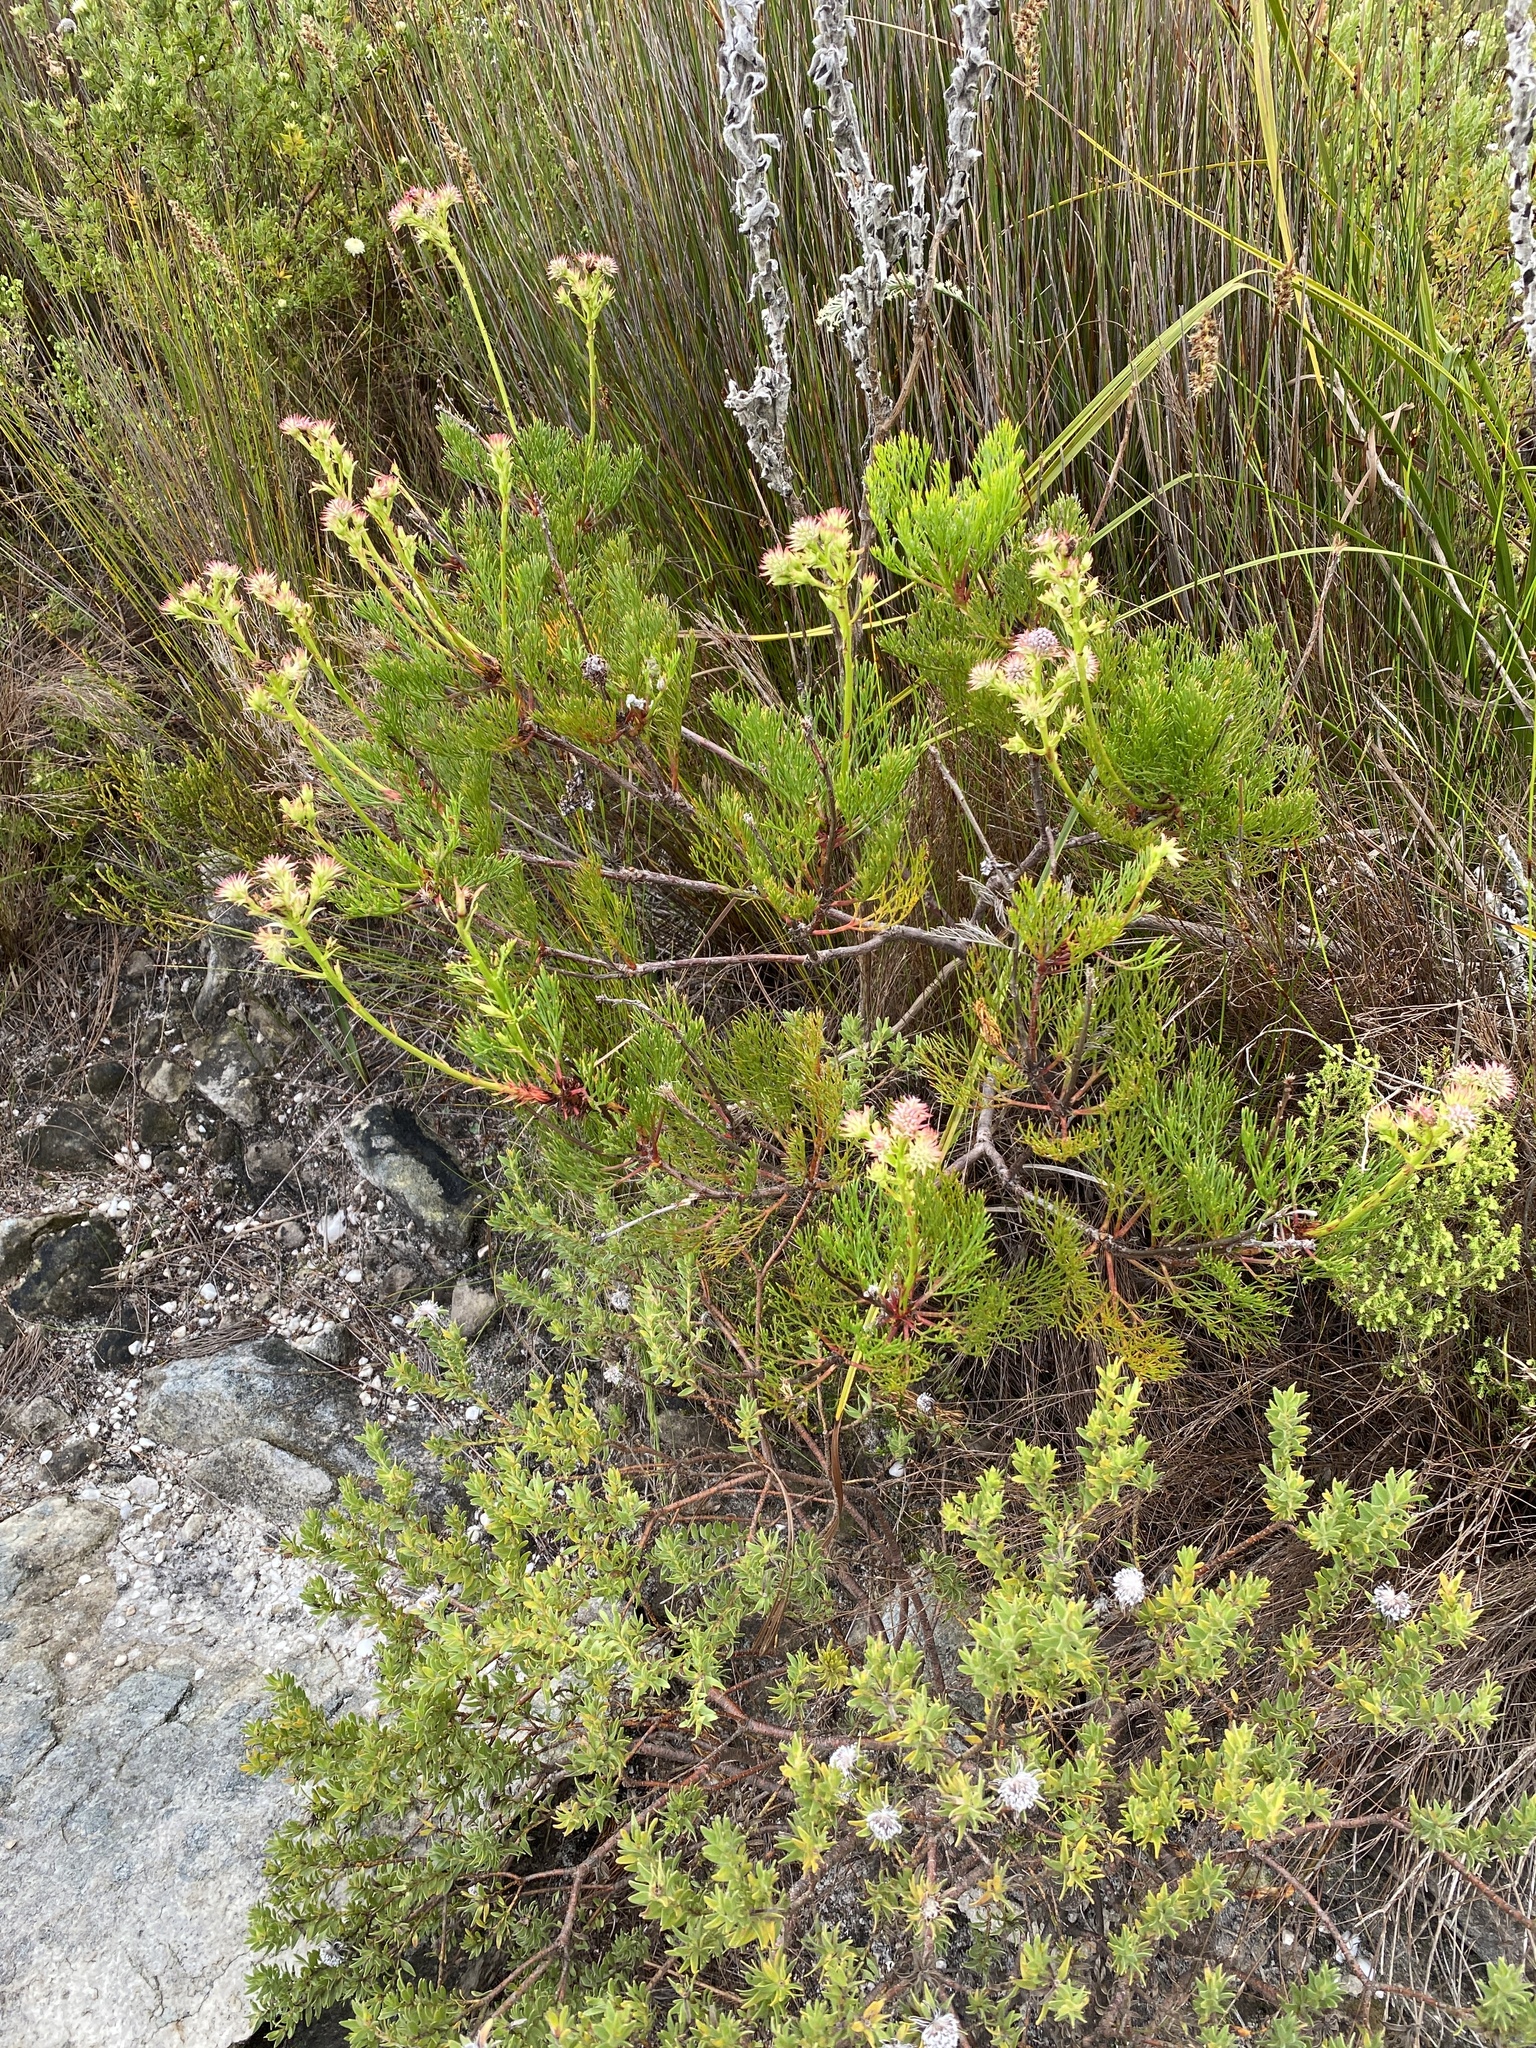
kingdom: Plantae
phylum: Tracheophyta
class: Magnoliopsida
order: Proteales
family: Proteaceae
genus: Serruria
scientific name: Serruria elongata
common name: Long-stalk spiderhead
